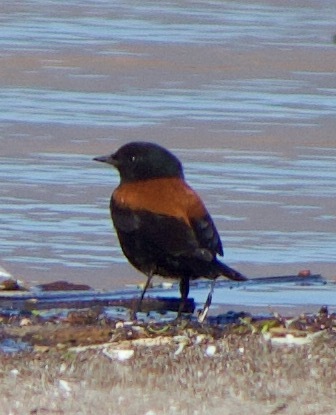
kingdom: Animalia
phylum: Chordata
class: Aves
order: Passeriformes
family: Tyrannidae
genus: Lessonia
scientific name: Lessonia rufa
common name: Austral negrito
